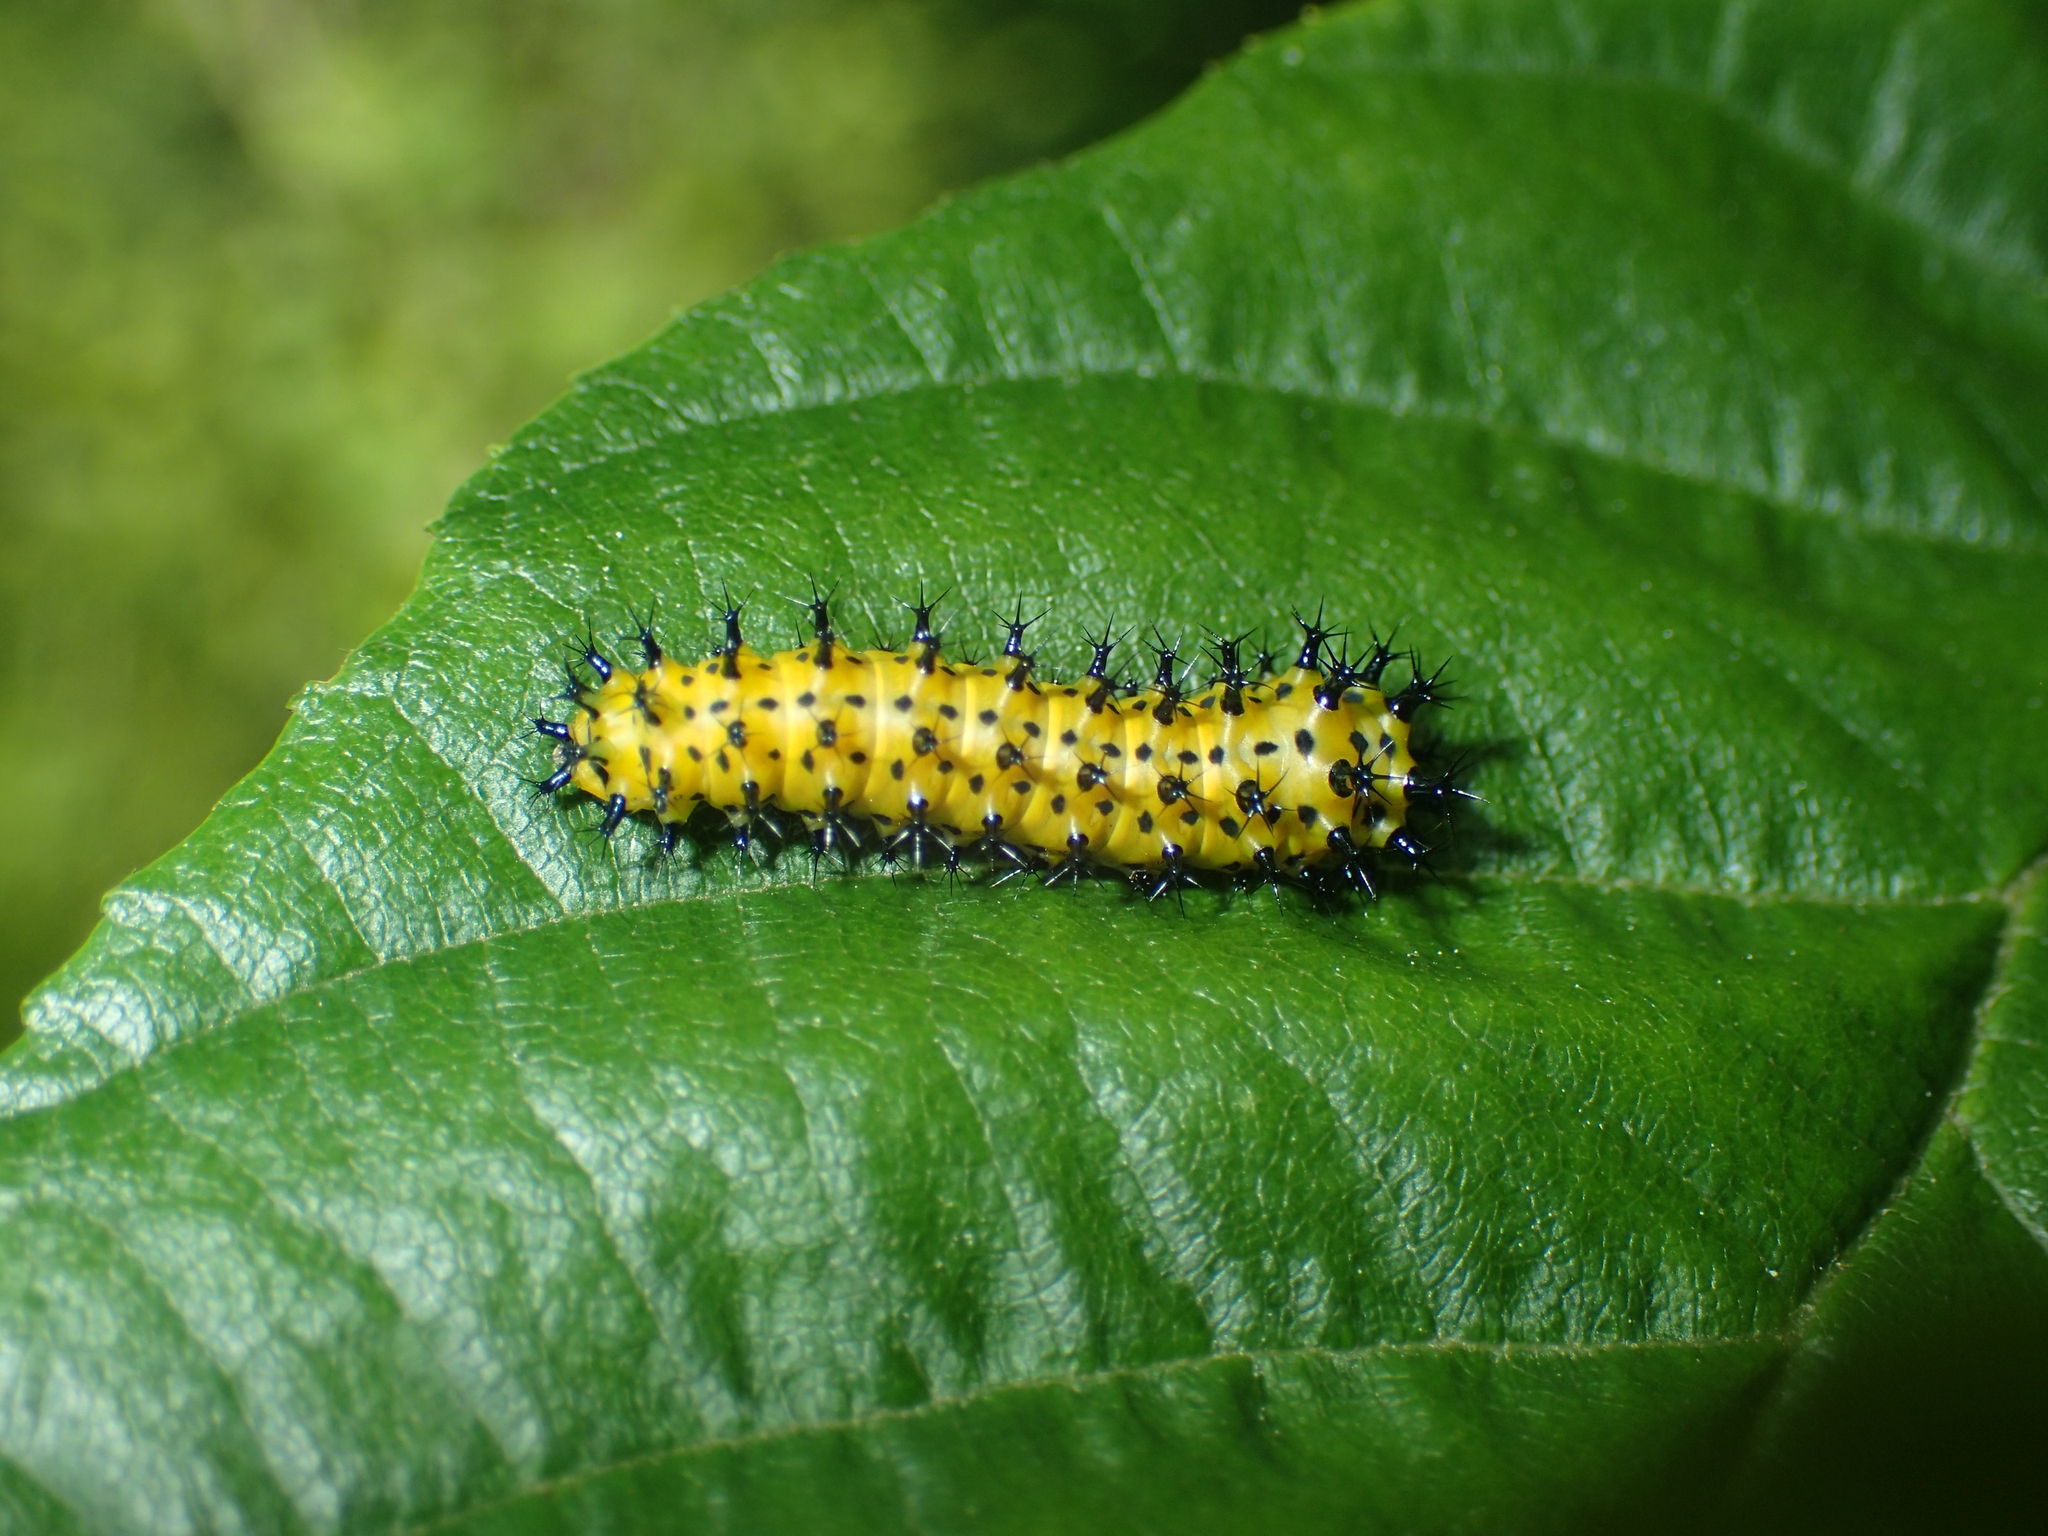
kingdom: Animalia
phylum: Arthropoda
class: Insecta
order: Lepidoptera
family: Saturniidae
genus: Hyalophora
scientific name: Hyalophora cecropia
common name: Cecropia silkmoth
